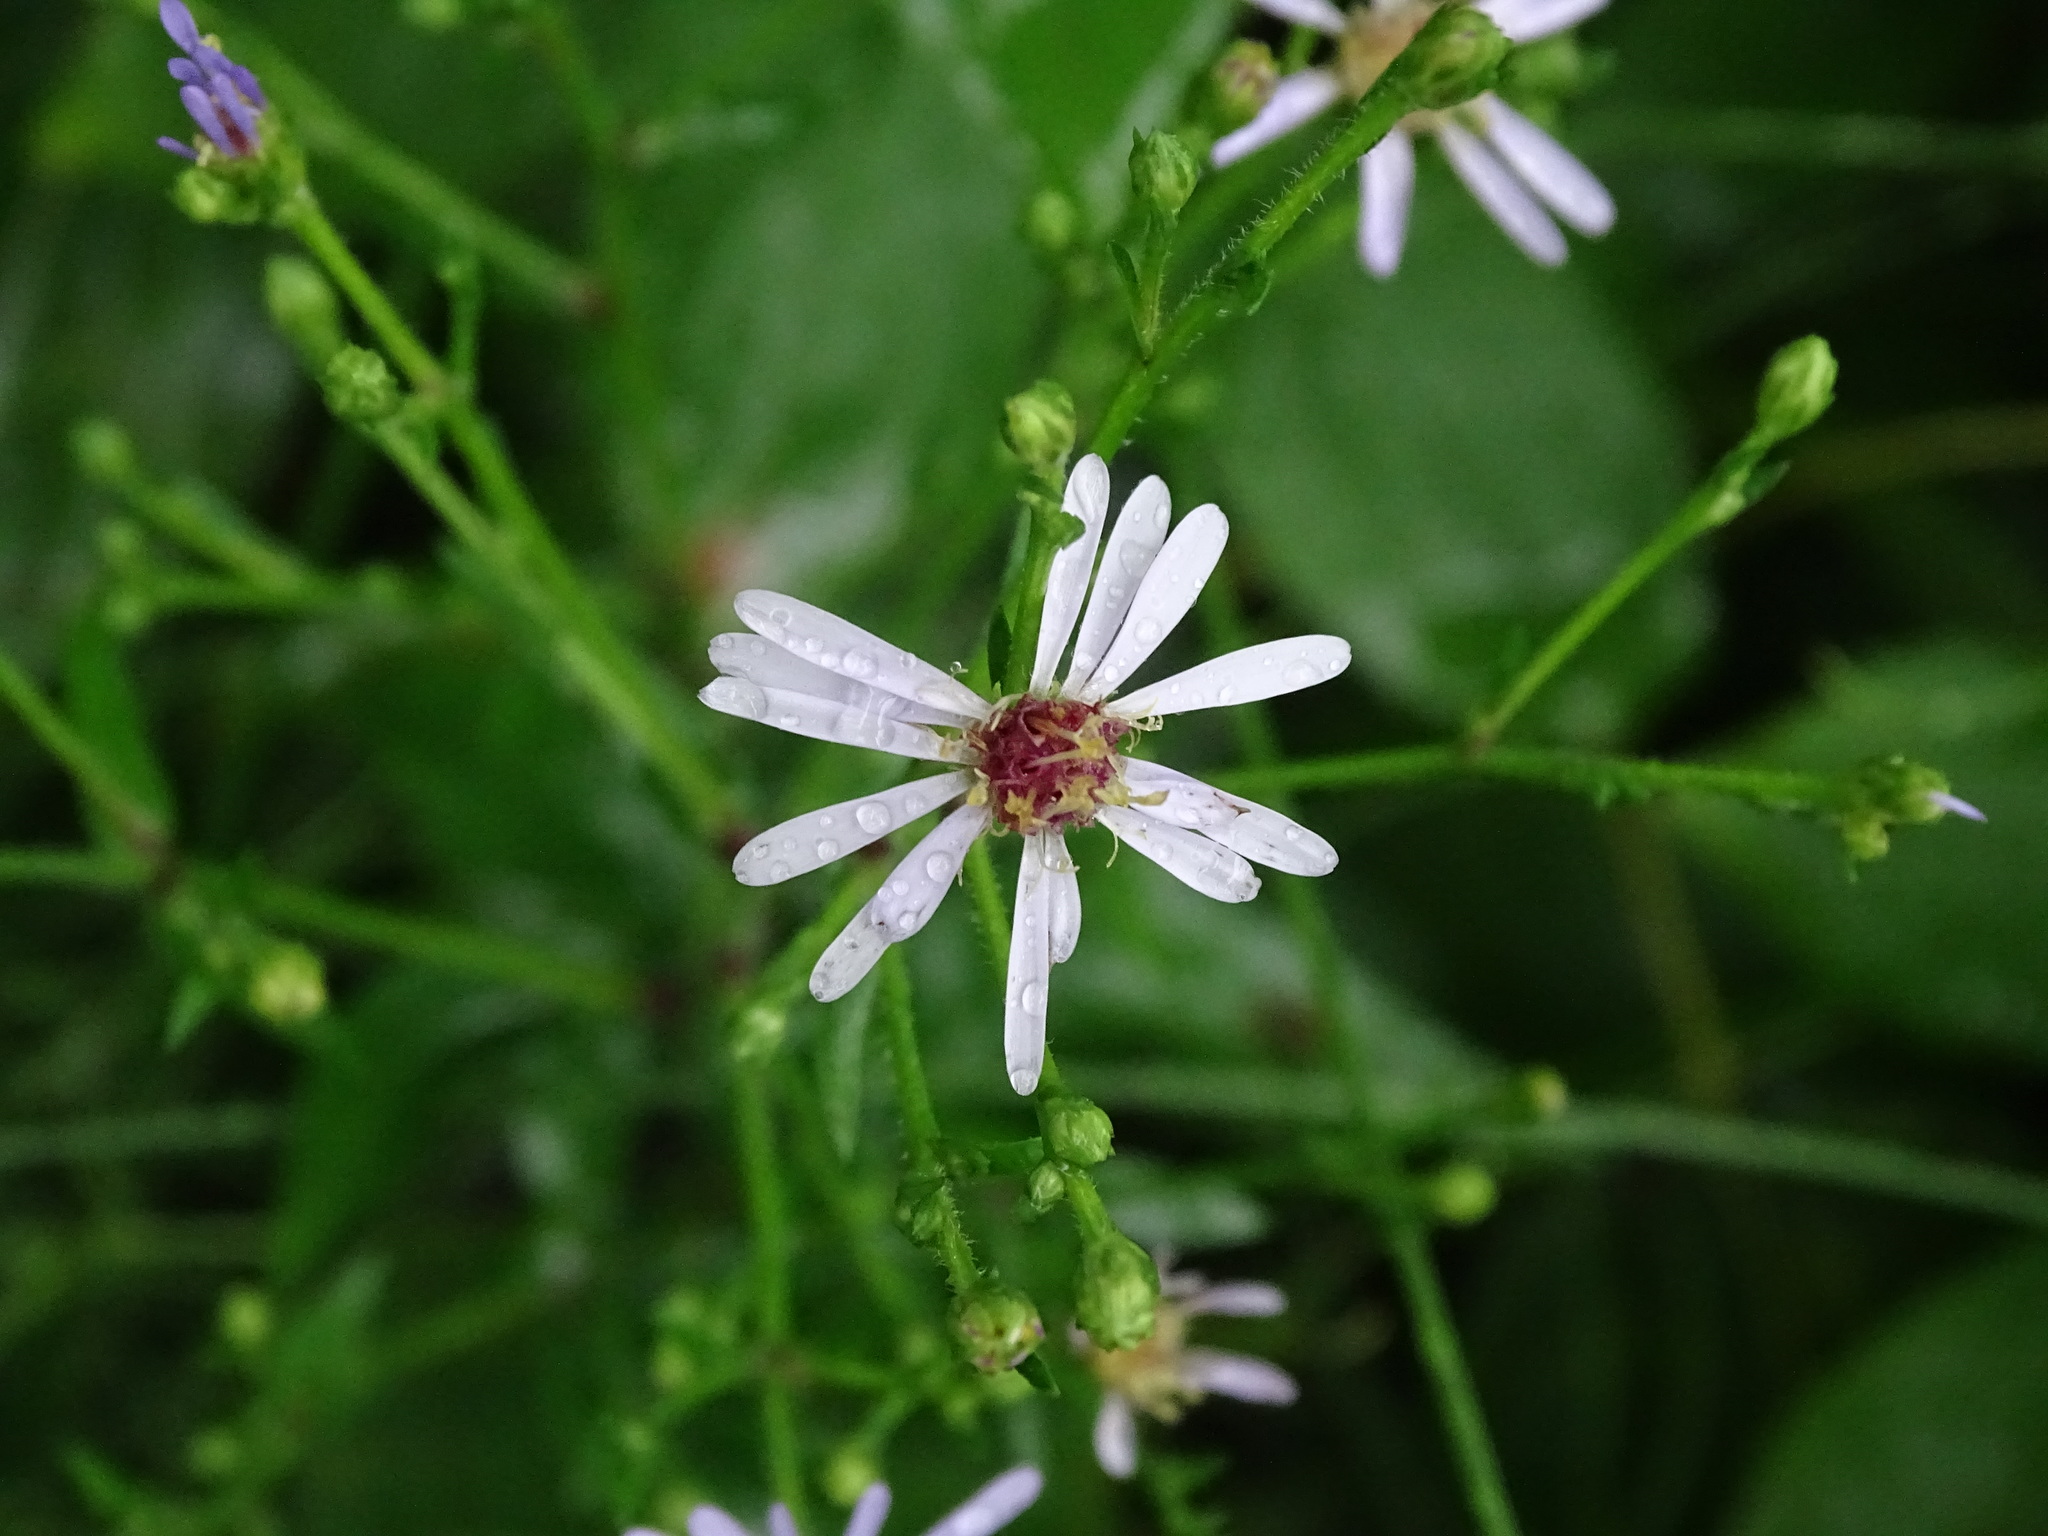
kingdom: Plantae
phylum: Tracheophyta
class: Magnoliopsida
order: Asterales
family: Asteraceae
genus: Symphyotrichum
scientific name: Symphyotrichum ciliolatum
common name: Fringed blue aster
